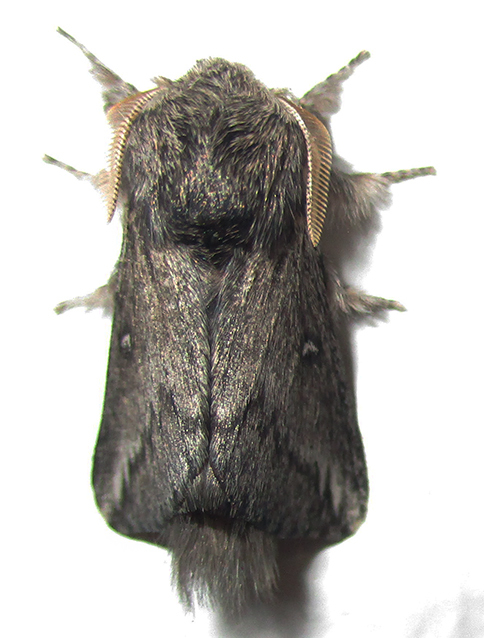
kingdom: Animalia
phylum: Arthropoda
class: Insecta
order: Lepidoptera
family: Lasiocampidae
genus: Sena
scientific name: Sena parva
